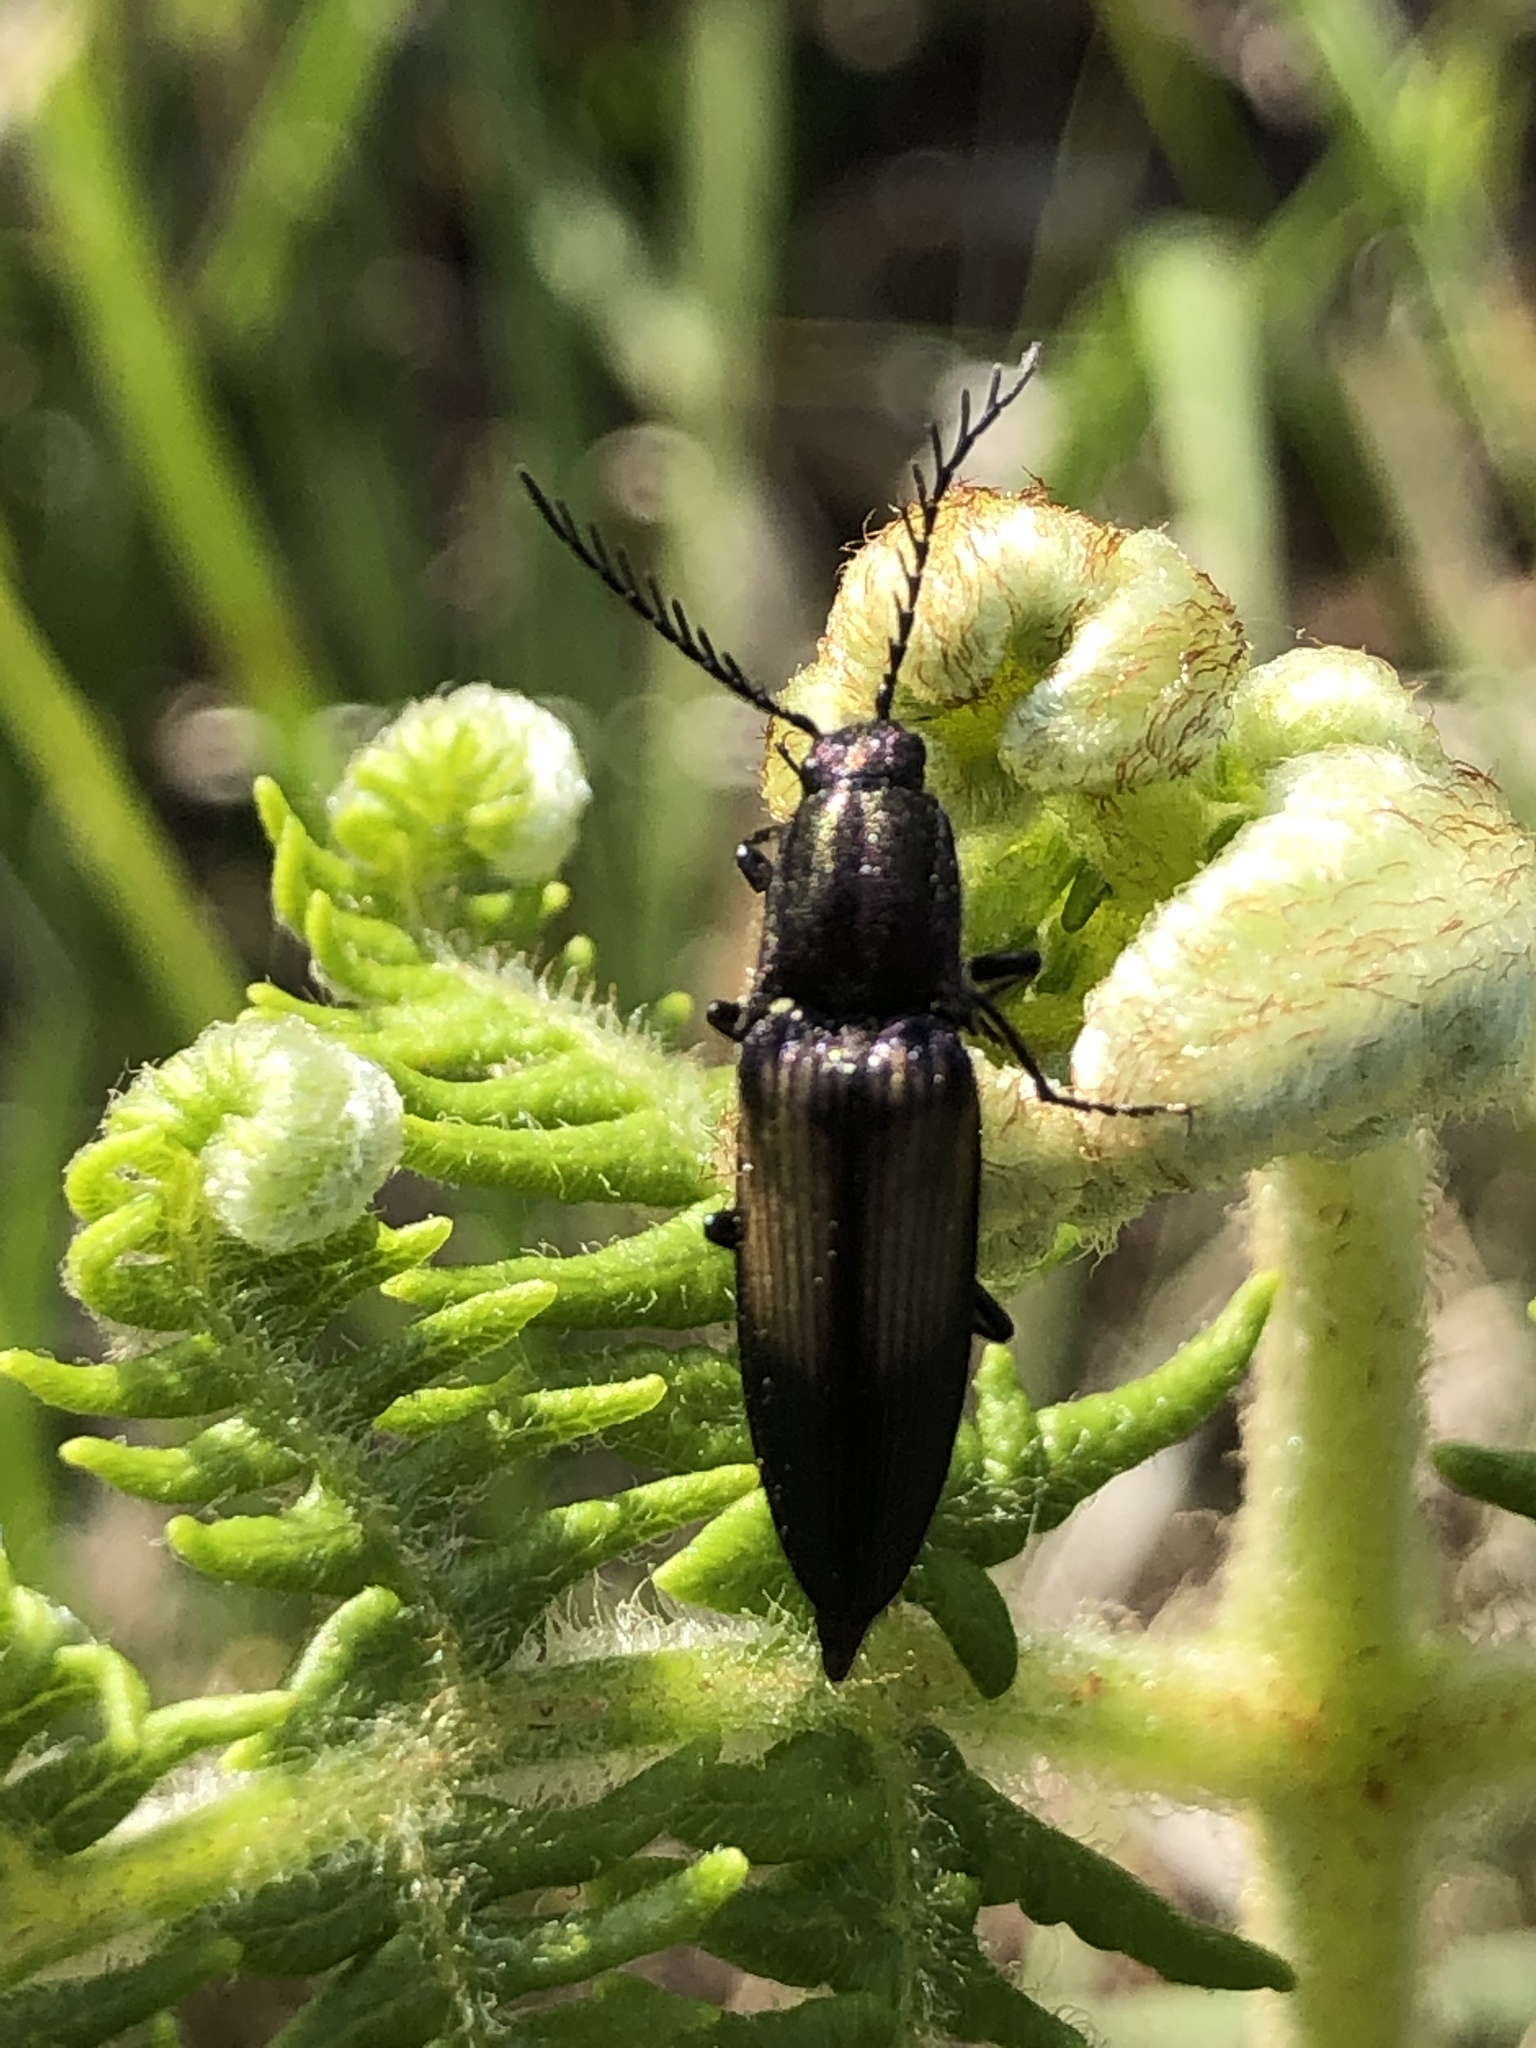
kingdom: Animalia
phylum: Arthropoda
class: Insecta
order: Coleoptera
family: Elateridae
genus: Ctenicera
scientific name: Ctenicera cuprea
